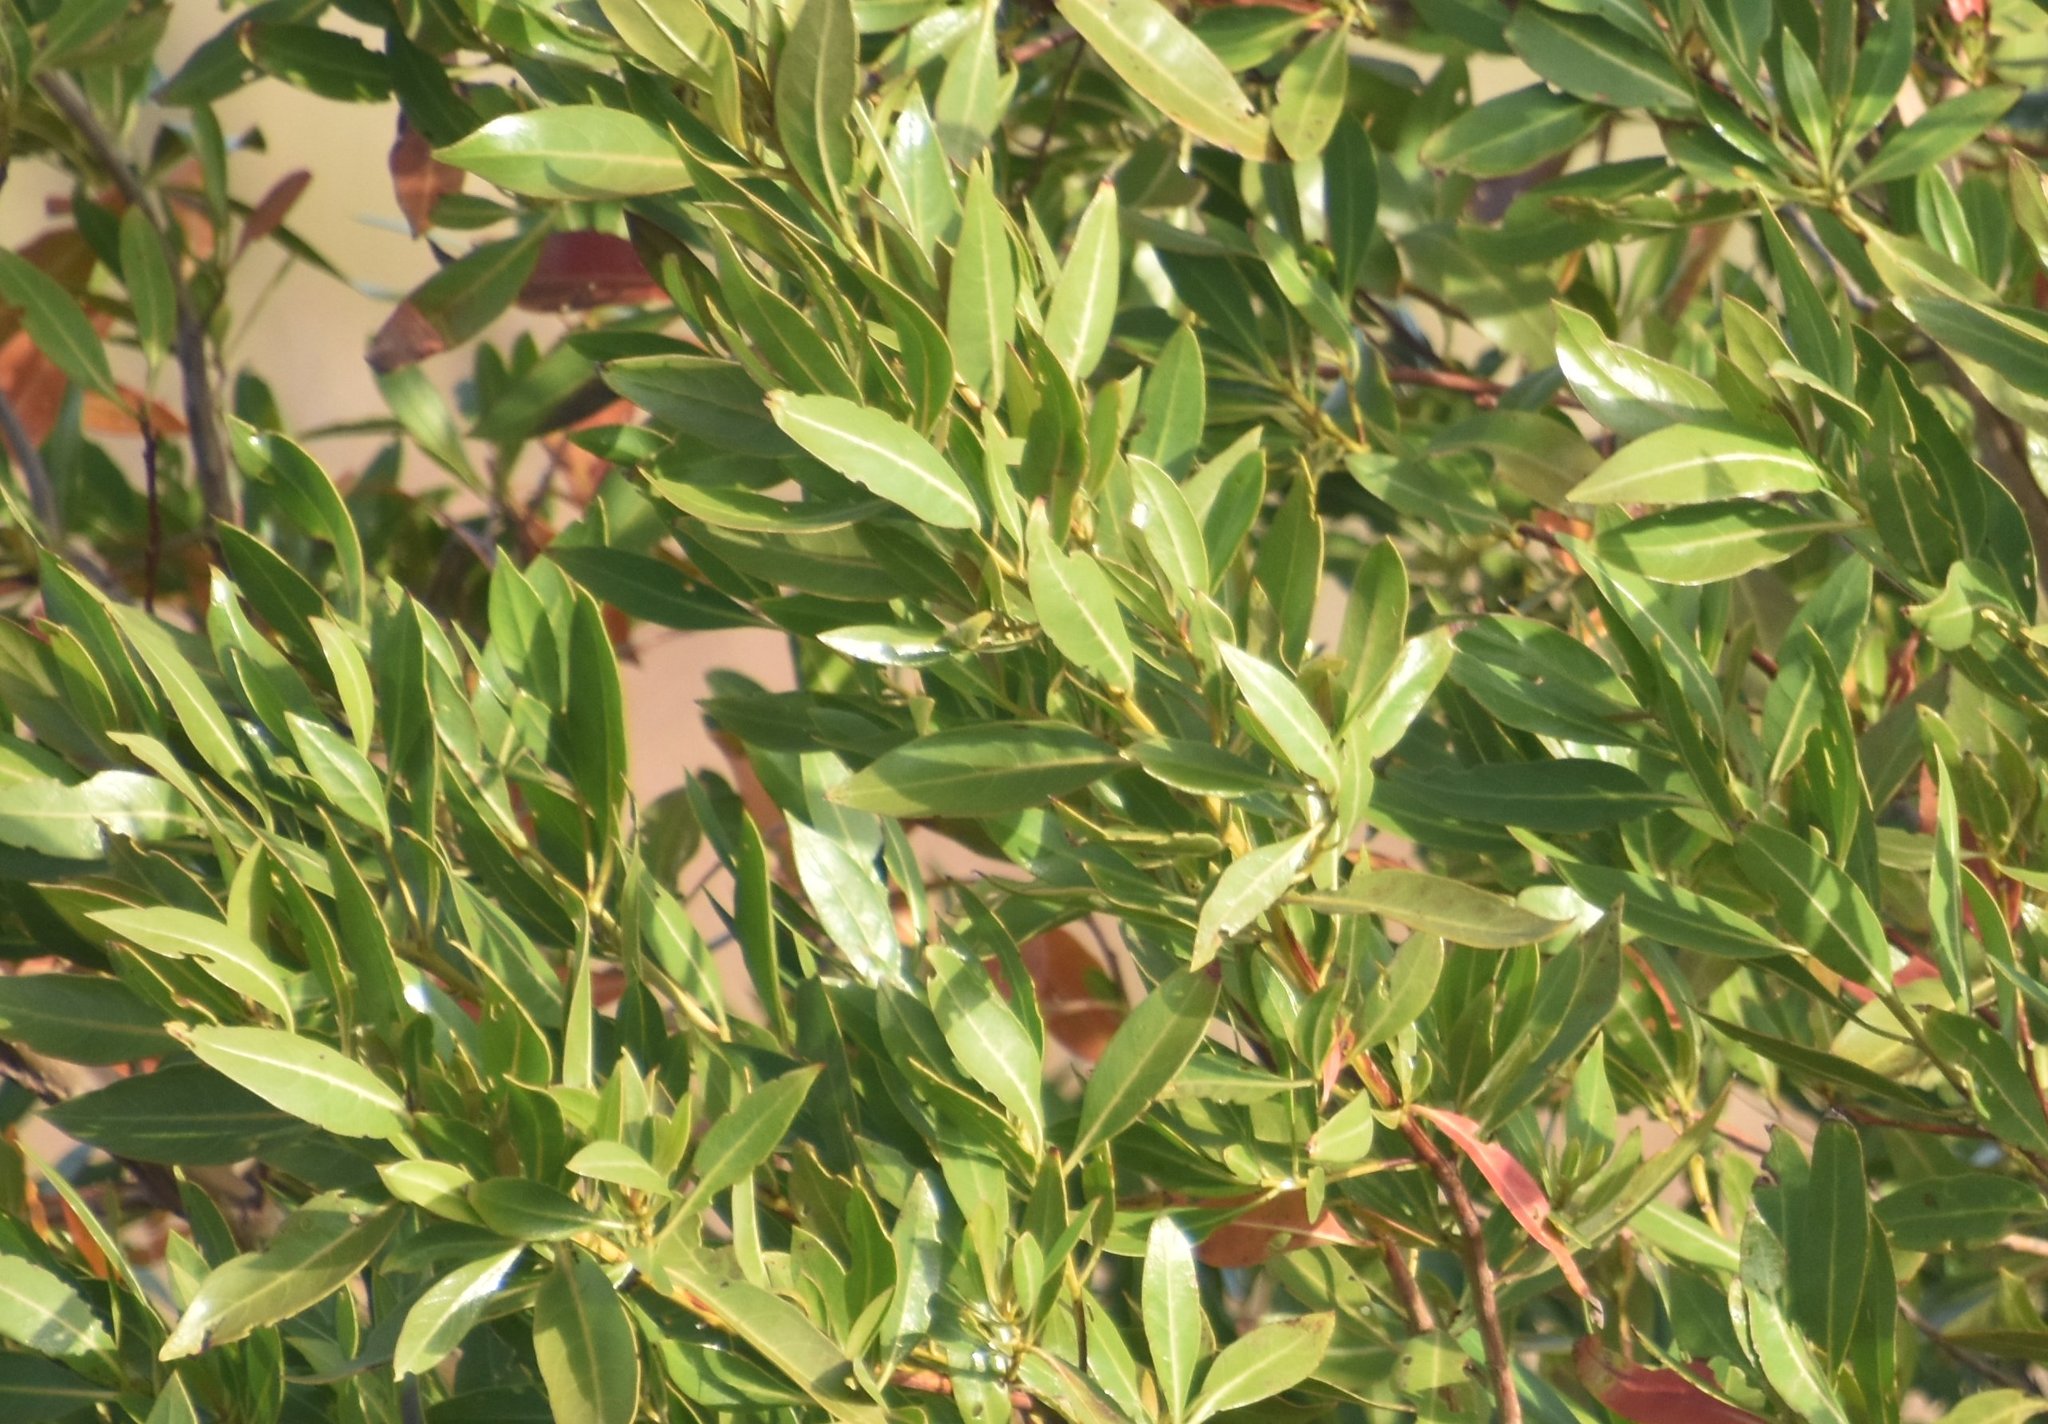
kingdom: Plantae
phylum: Tracheophyta
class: Magnoliopsida
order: Myrtales
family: Combretaceae
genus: Conocarpus
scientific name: Conocarpus erectus
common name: Button mangrove
